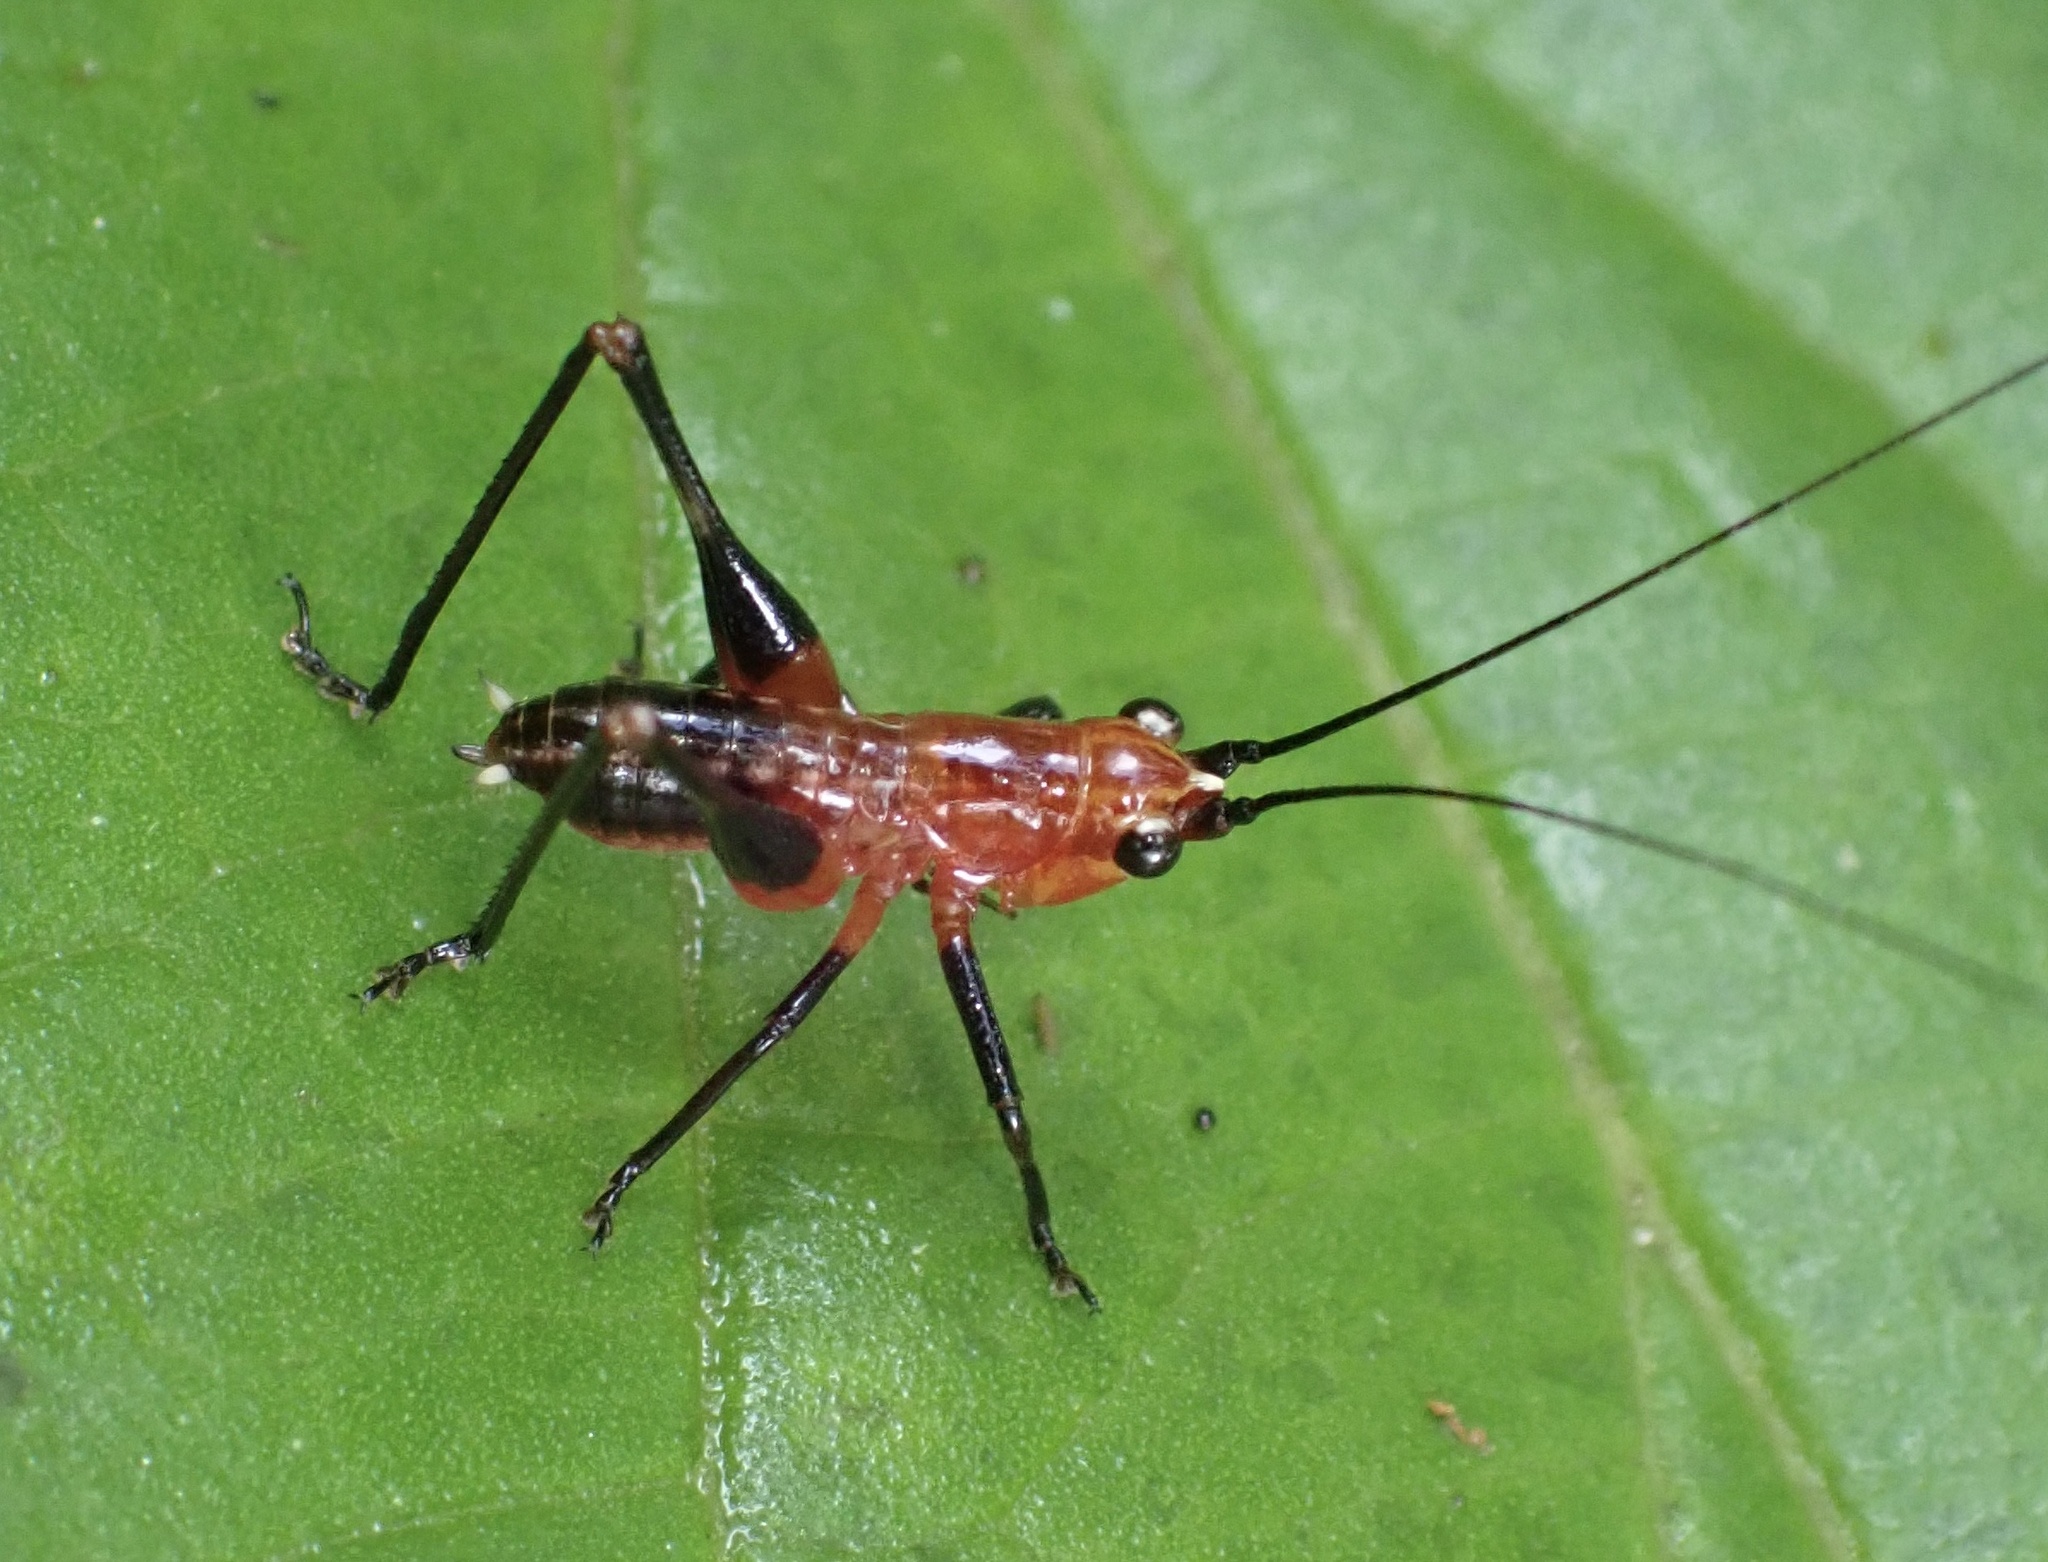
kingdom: Animalia
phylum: Arthropoda
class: Insecta
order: Orthoptera
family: Tettigoniidae
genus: Conocephalus
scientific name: Conocephalus melaenus
